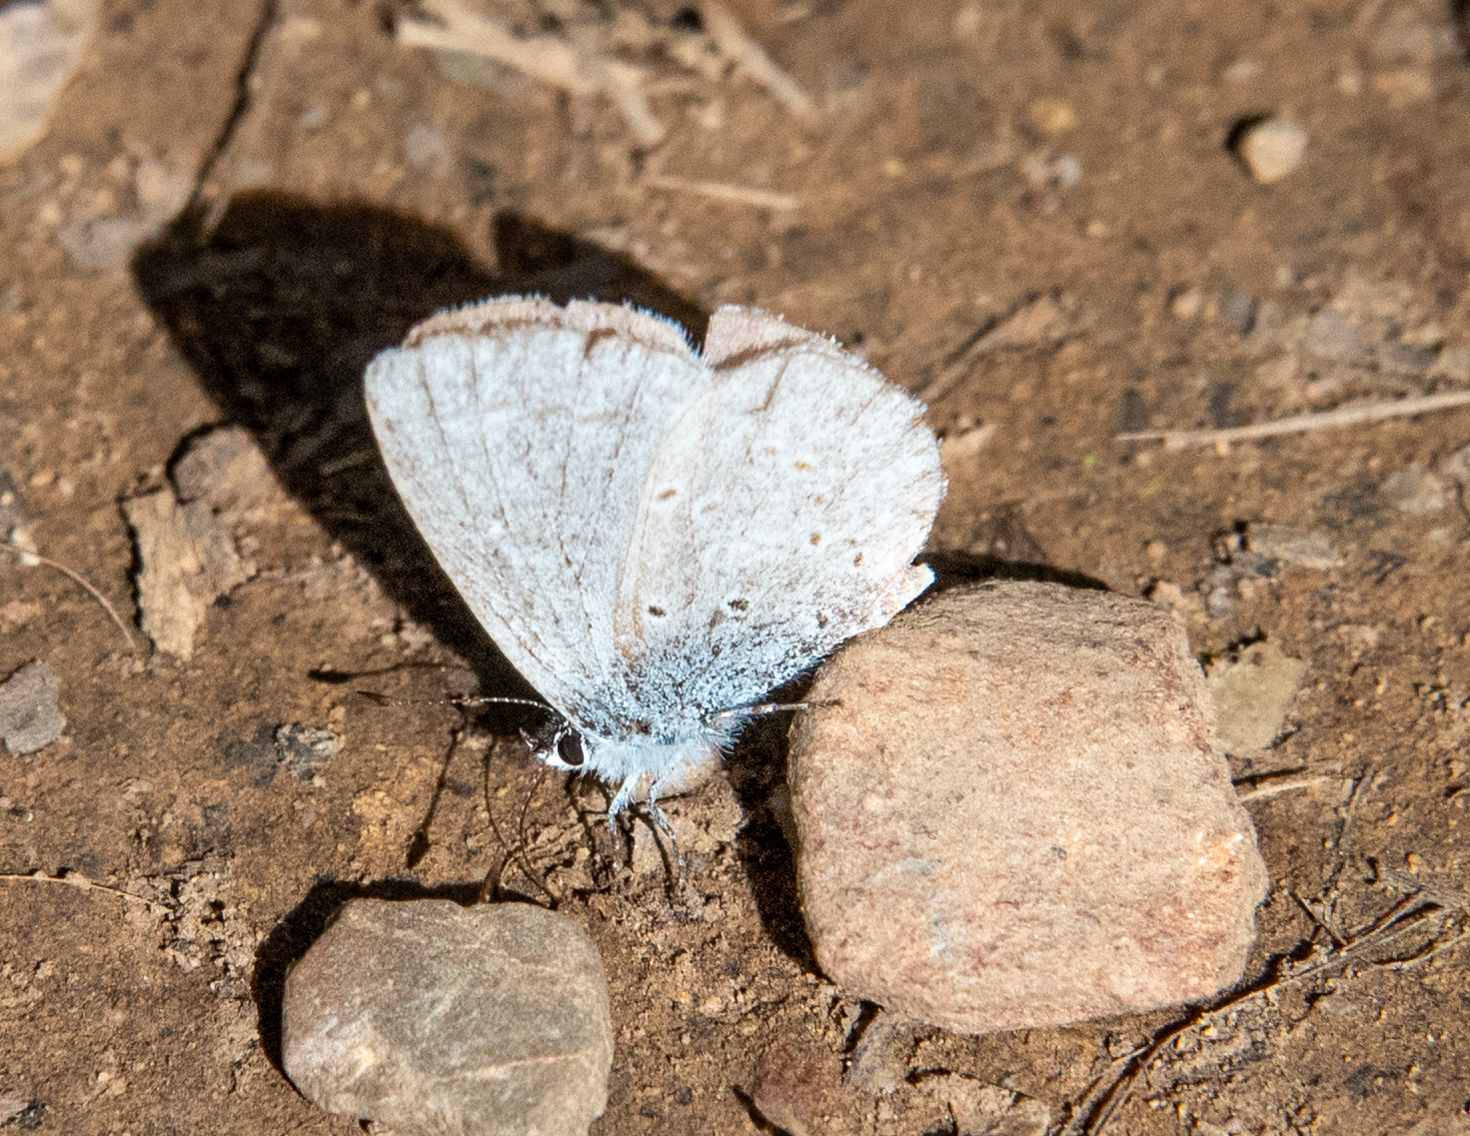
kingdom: Animalia
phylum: Arthropoda
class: Insecta
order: Lepidoptera
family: Lycaenidae
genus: Celastrina
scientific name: Celastrina ladon
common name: Spring azure
